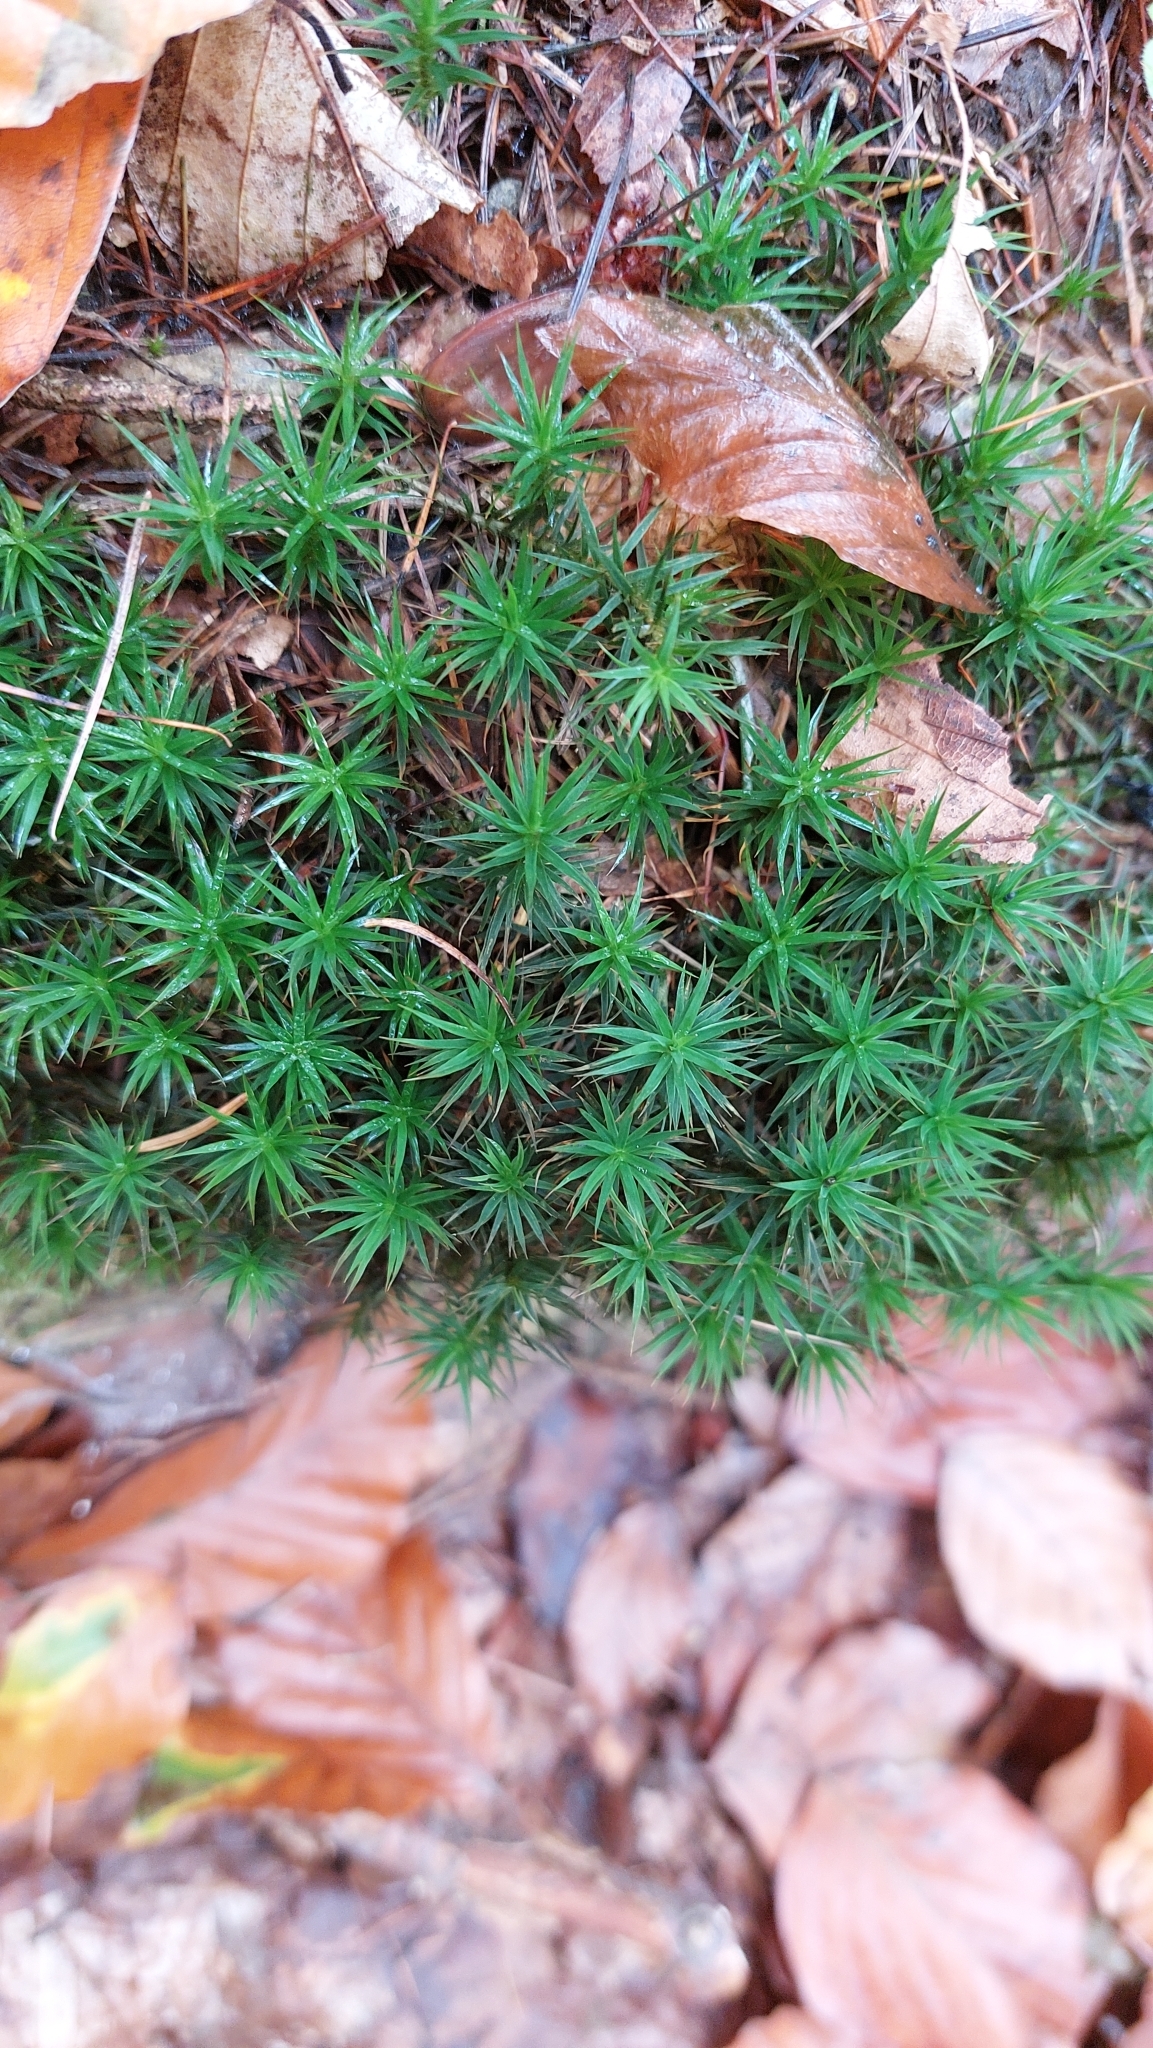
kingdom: Plantae
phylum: Bryophyta
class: Polytrichopsida
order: Polytrichales
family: Polytrichaceae
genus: Polytrichum
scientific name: Polytrichum formosum
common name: Bank haircap moss
